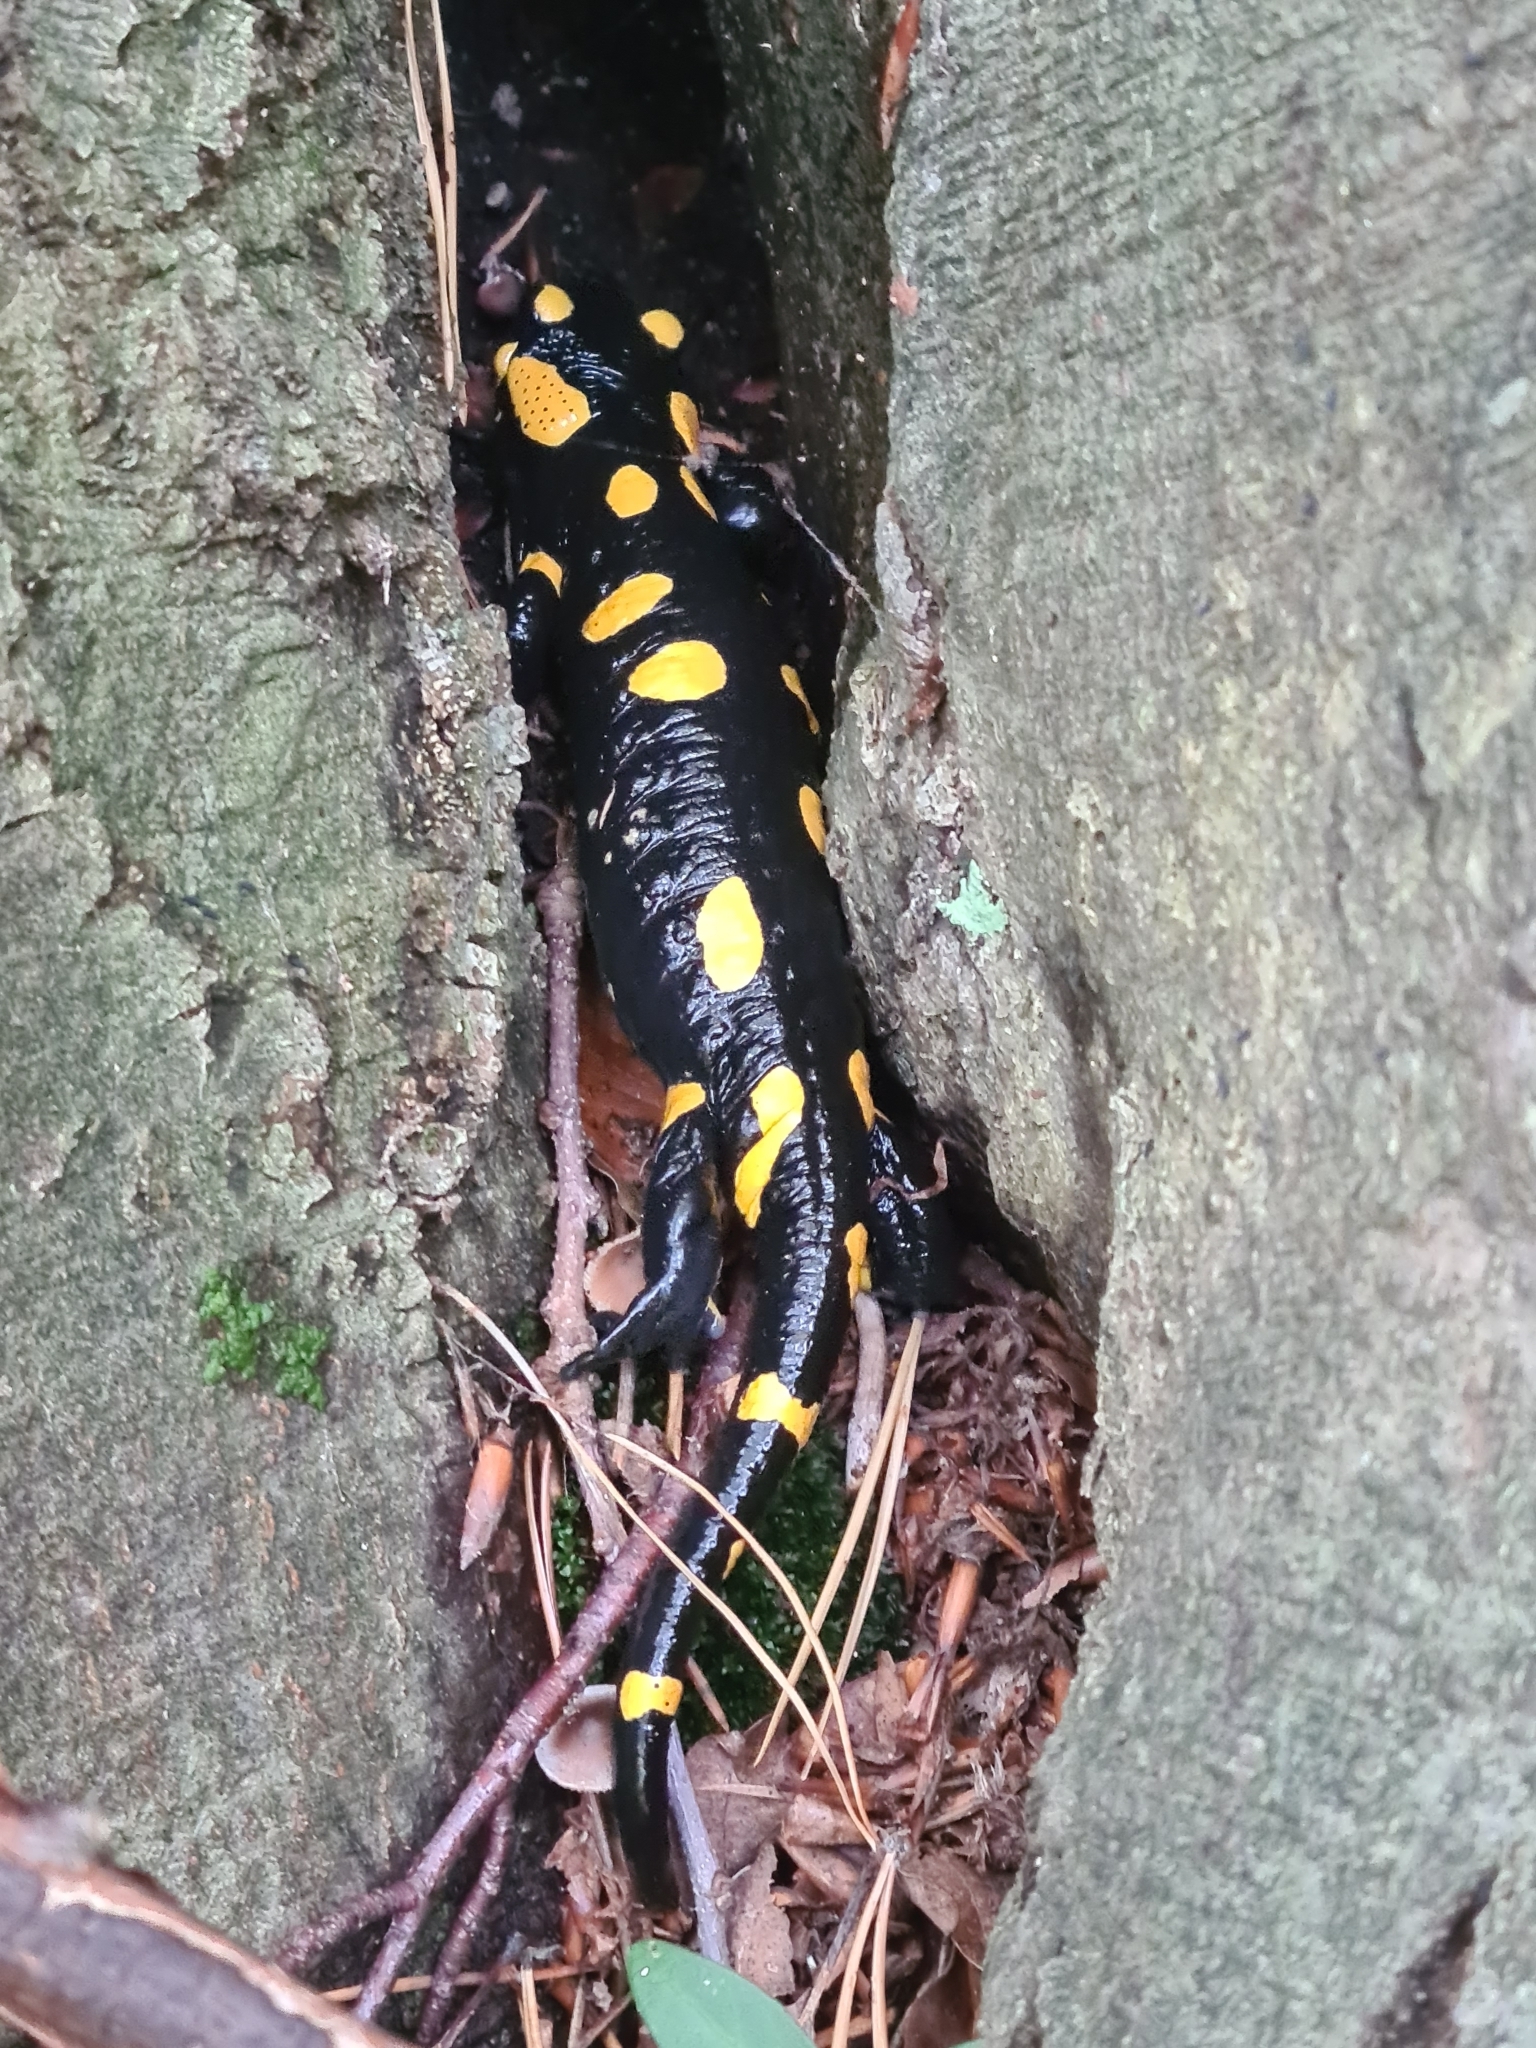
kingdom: Animalia
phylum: Chordata
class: Amphibia
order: Caudata
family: Salamandridae
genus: Salamandra
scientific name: Salamandra salamandra
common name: Fire salamander
